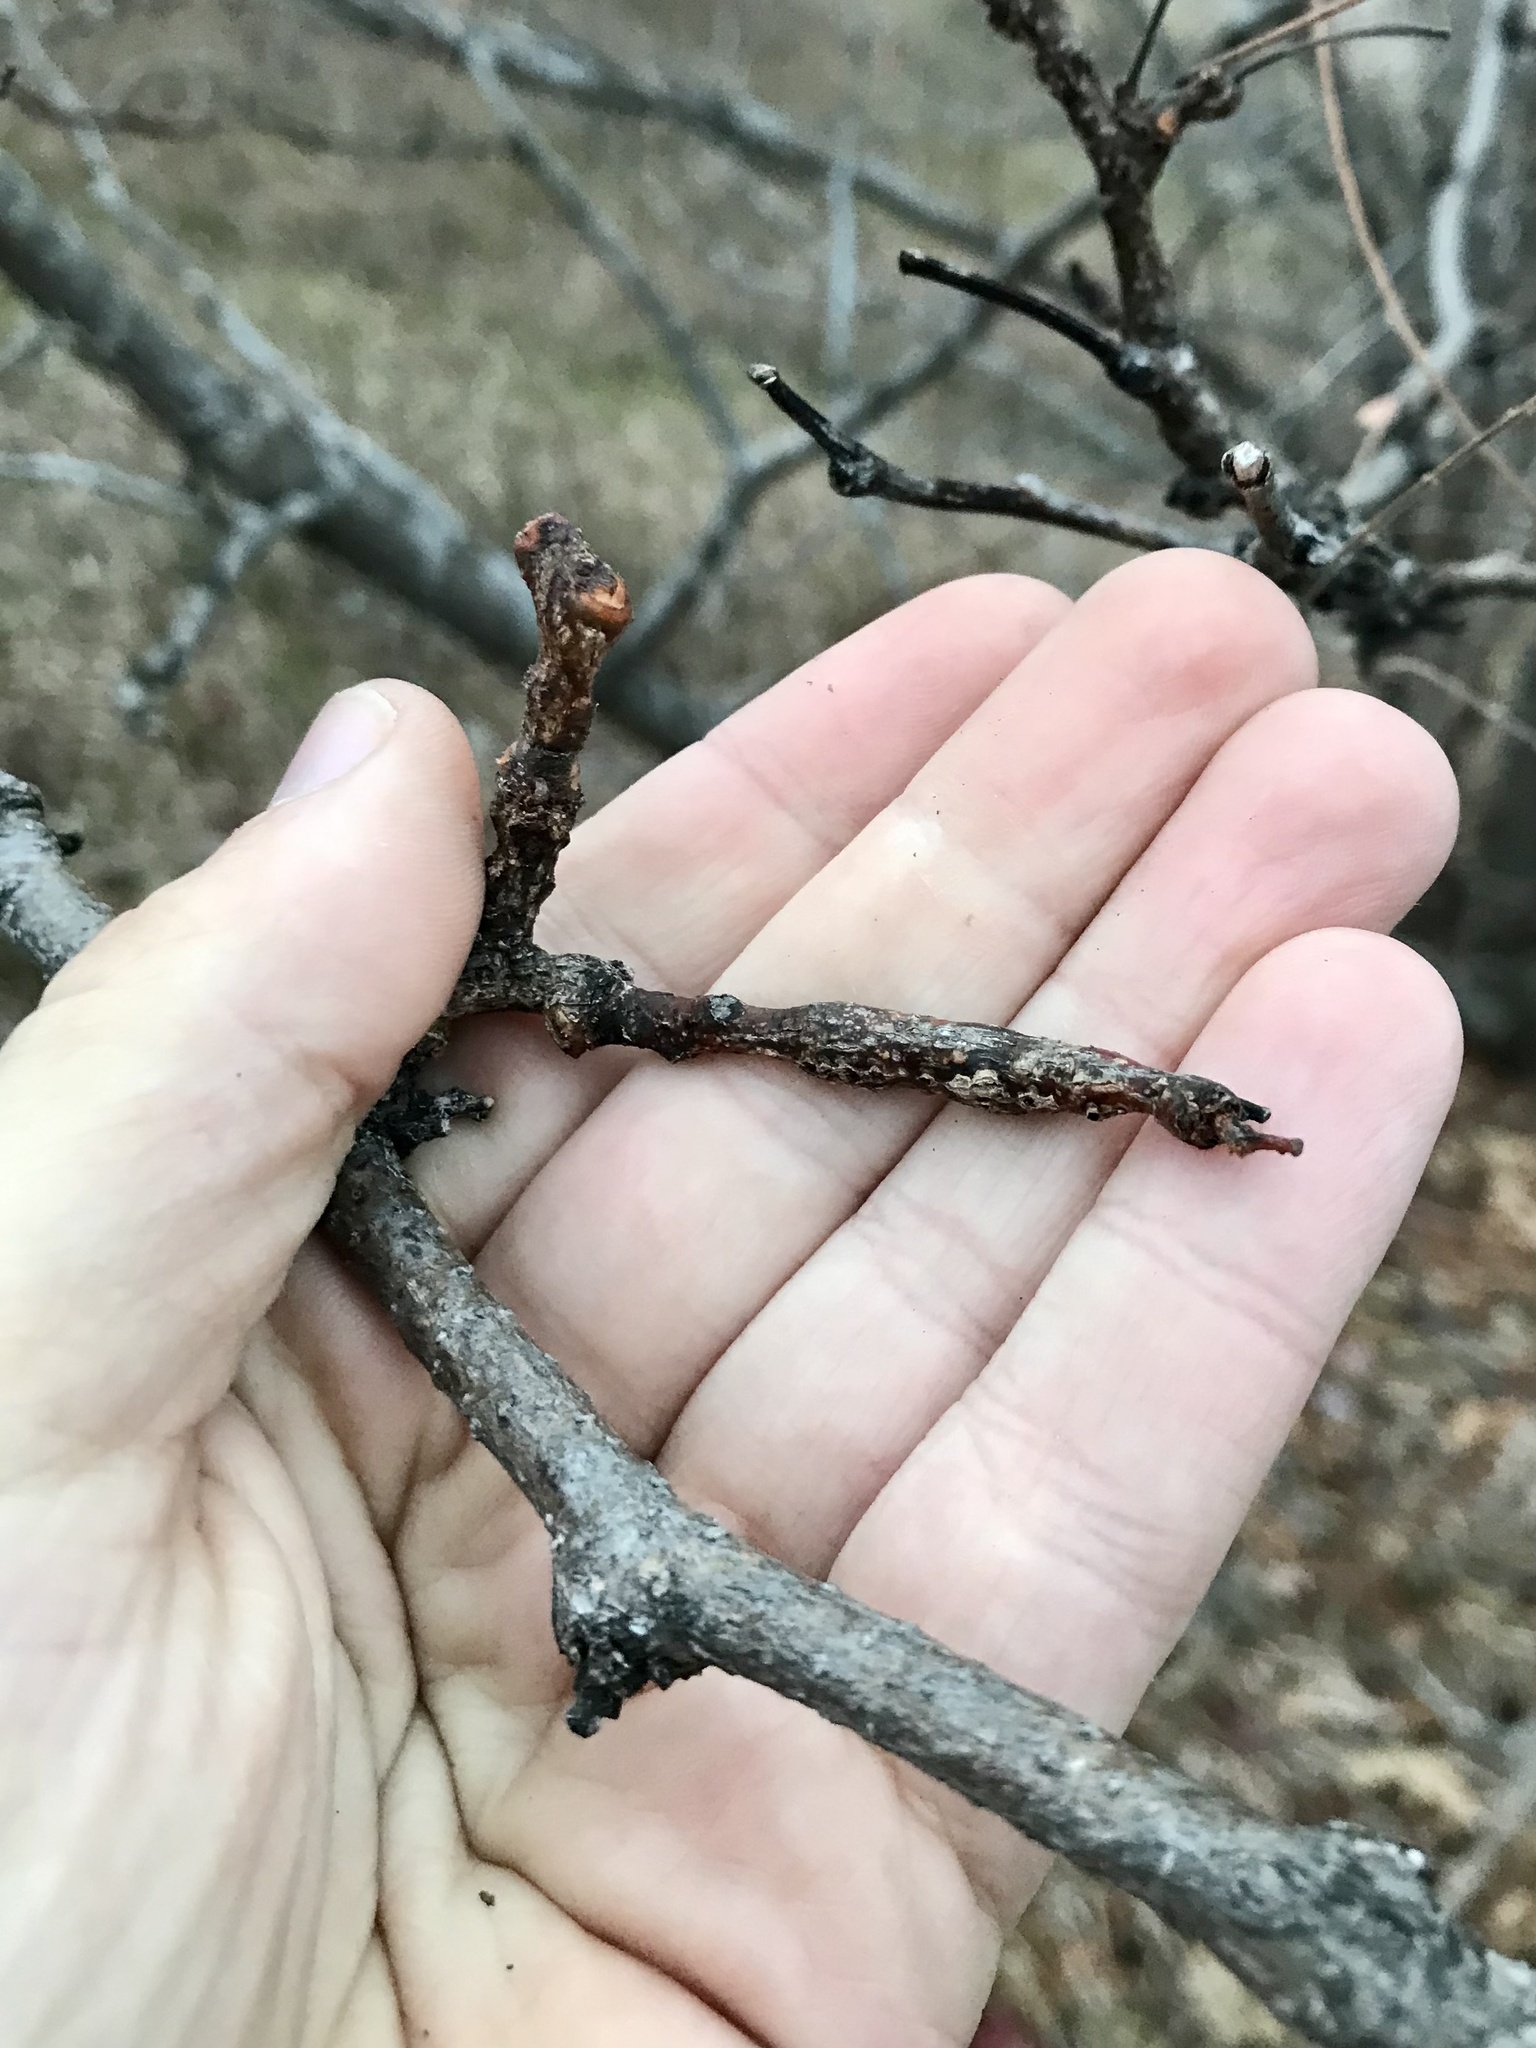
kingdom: Animalia
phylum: Arthropoda
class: Insecta
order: Diptera
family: Cecidomyiidae
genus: Neolasioptera
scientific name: Neolasioptera brevis
